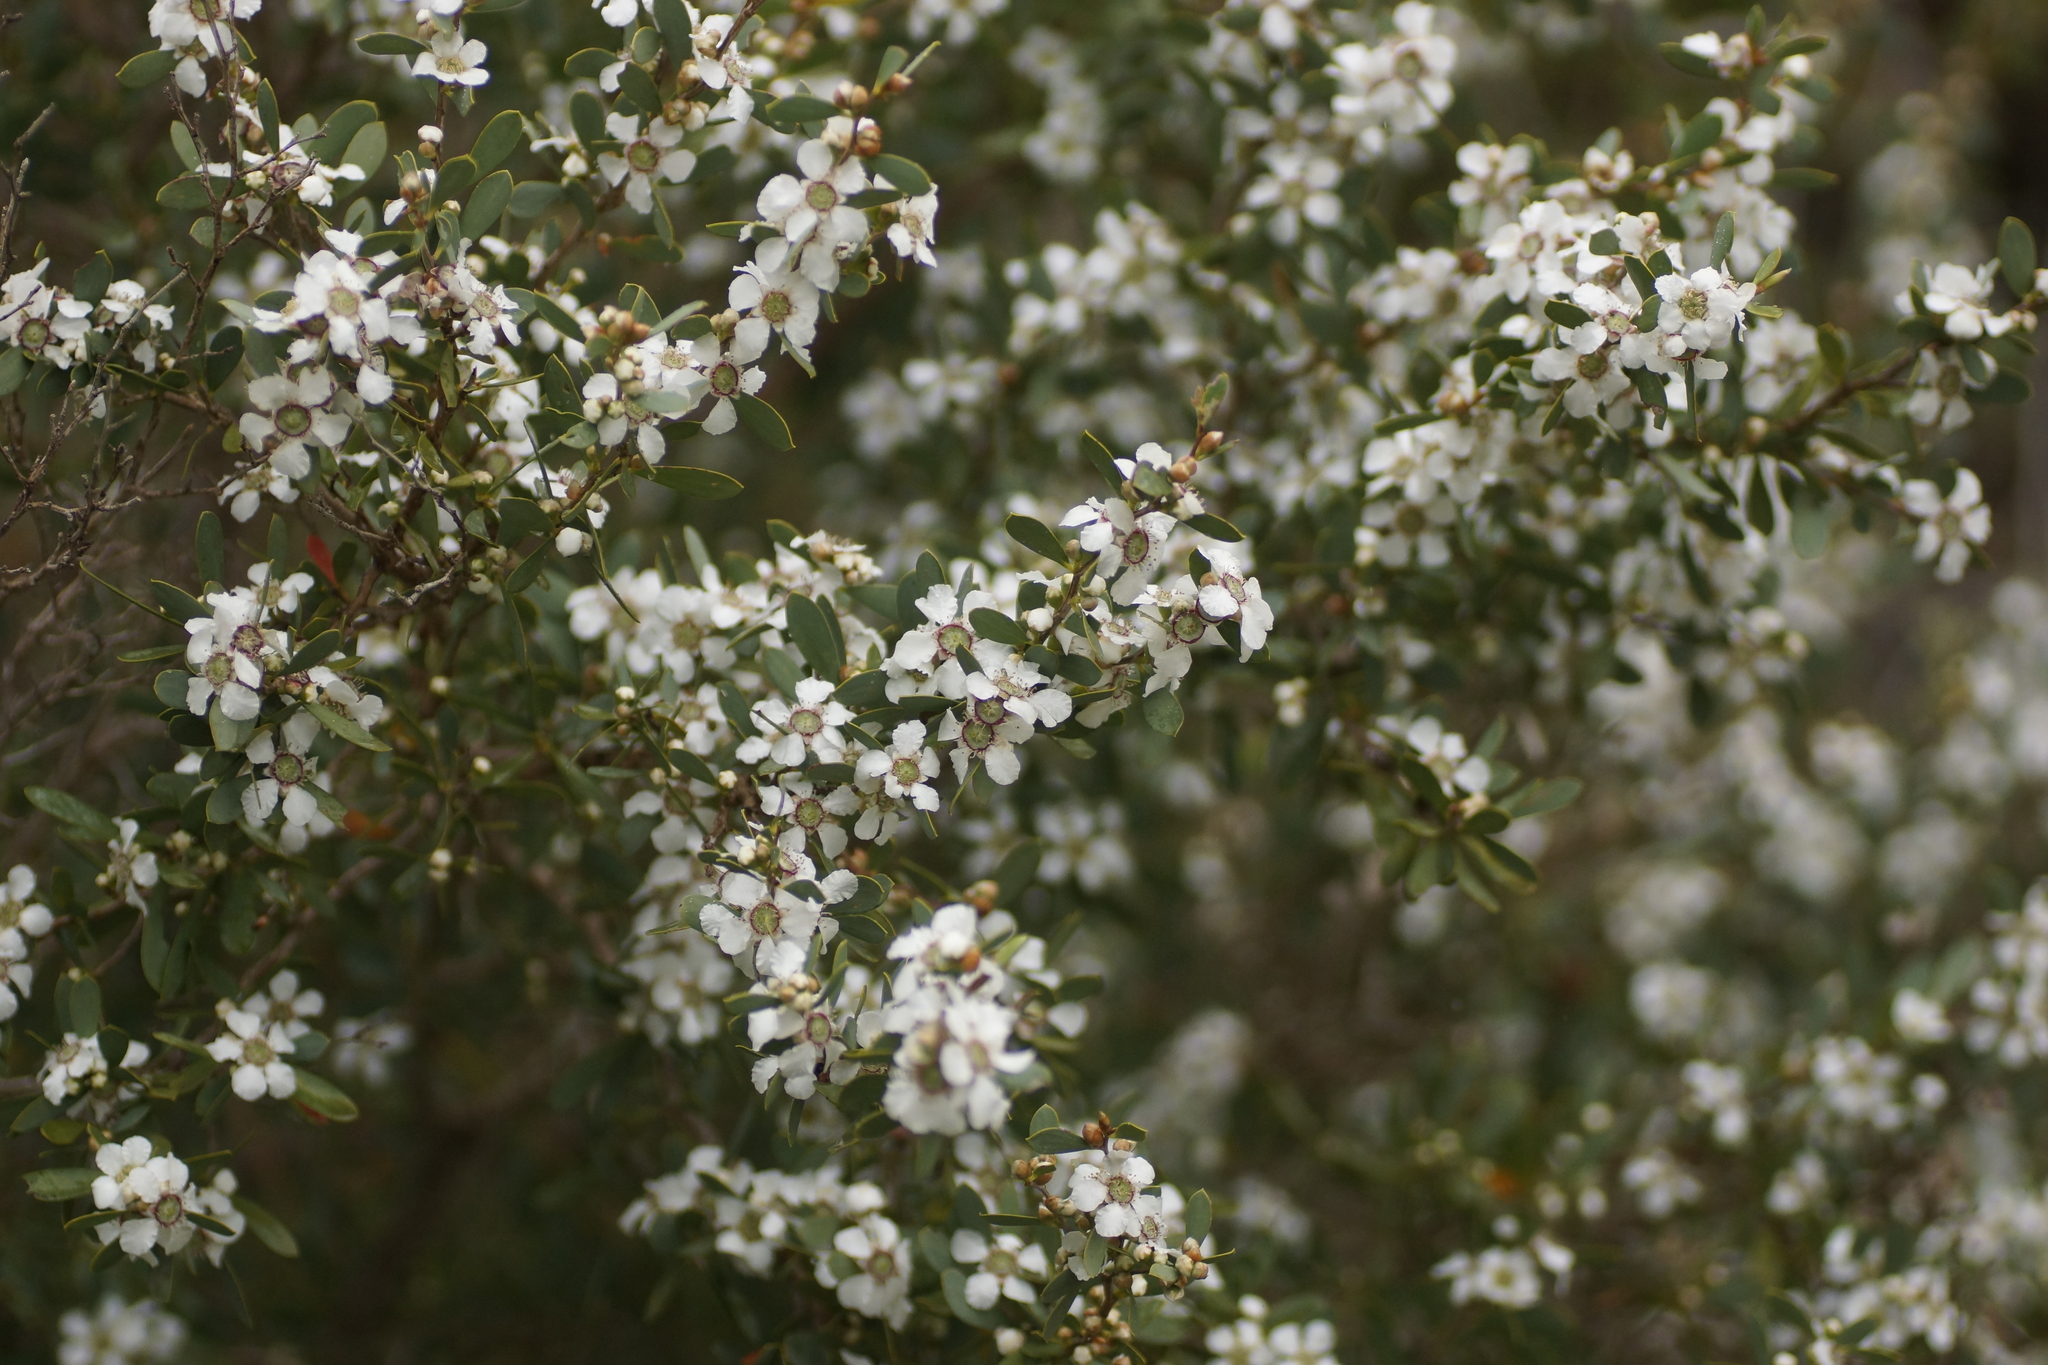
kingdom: Plantae
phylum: Tracheophyta
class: Magnoliopsida
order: Myrtales
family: Myrtaceae
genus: Leptospermum
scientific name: Leptospermum laevigatum
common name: Australian teatree
